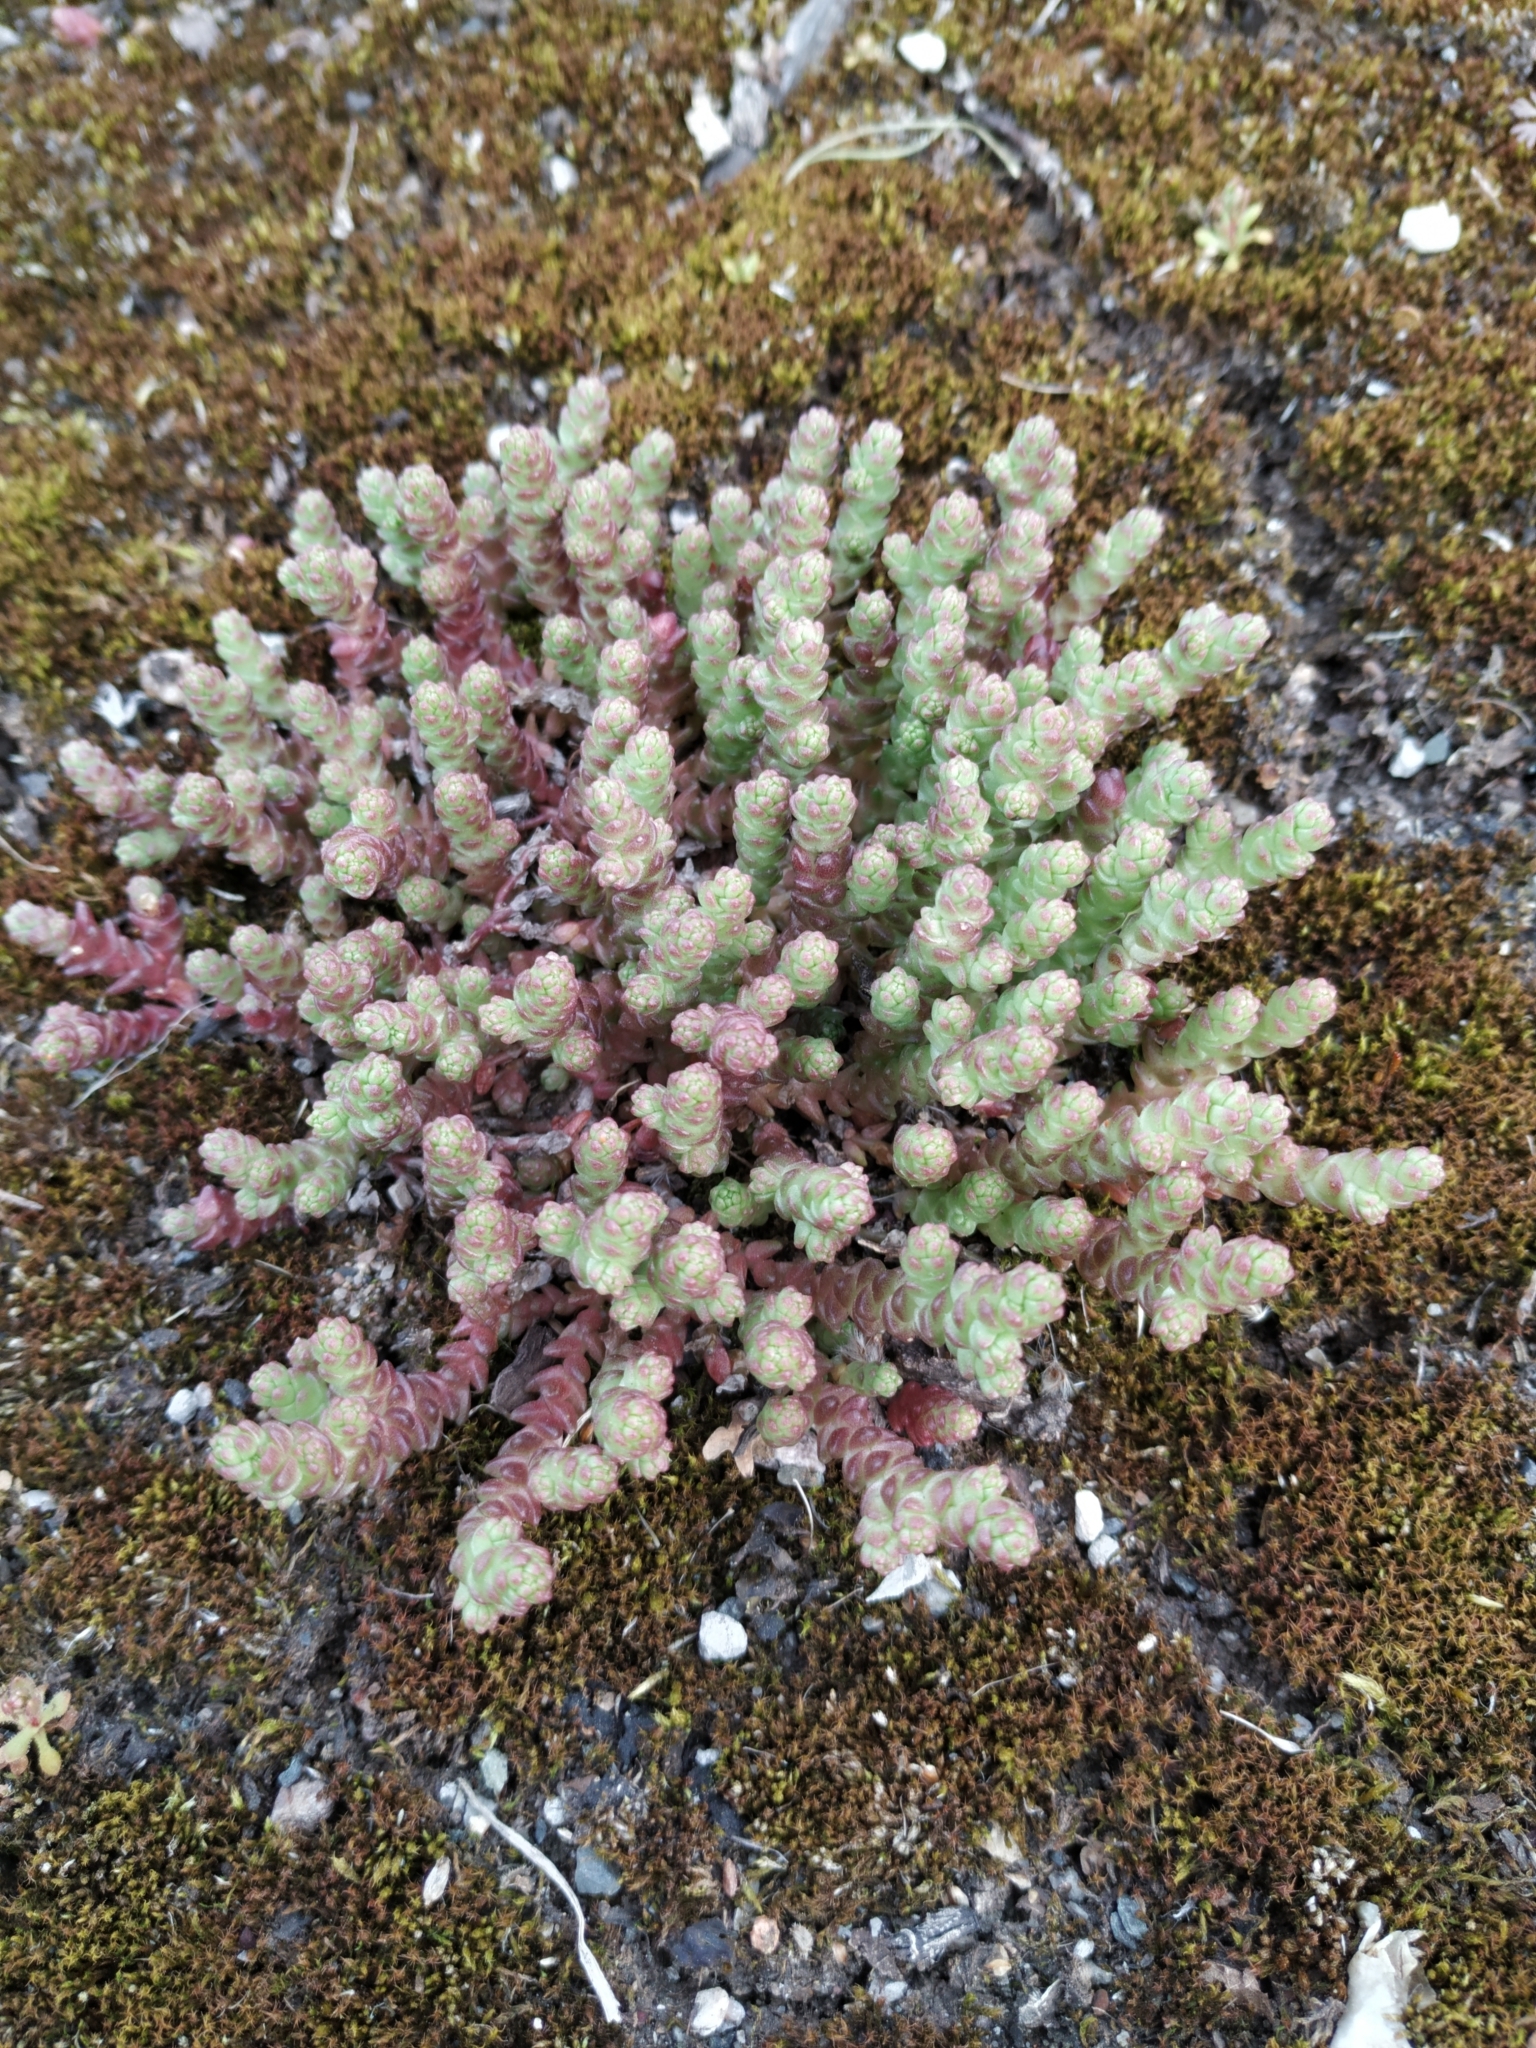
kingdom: Plantae
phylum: Tracheophyta
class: Magnoliopsida
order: Saxifragales
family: Crassulaceae
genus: Sedum
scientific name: Sedum acre
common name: Biting stonecrop
